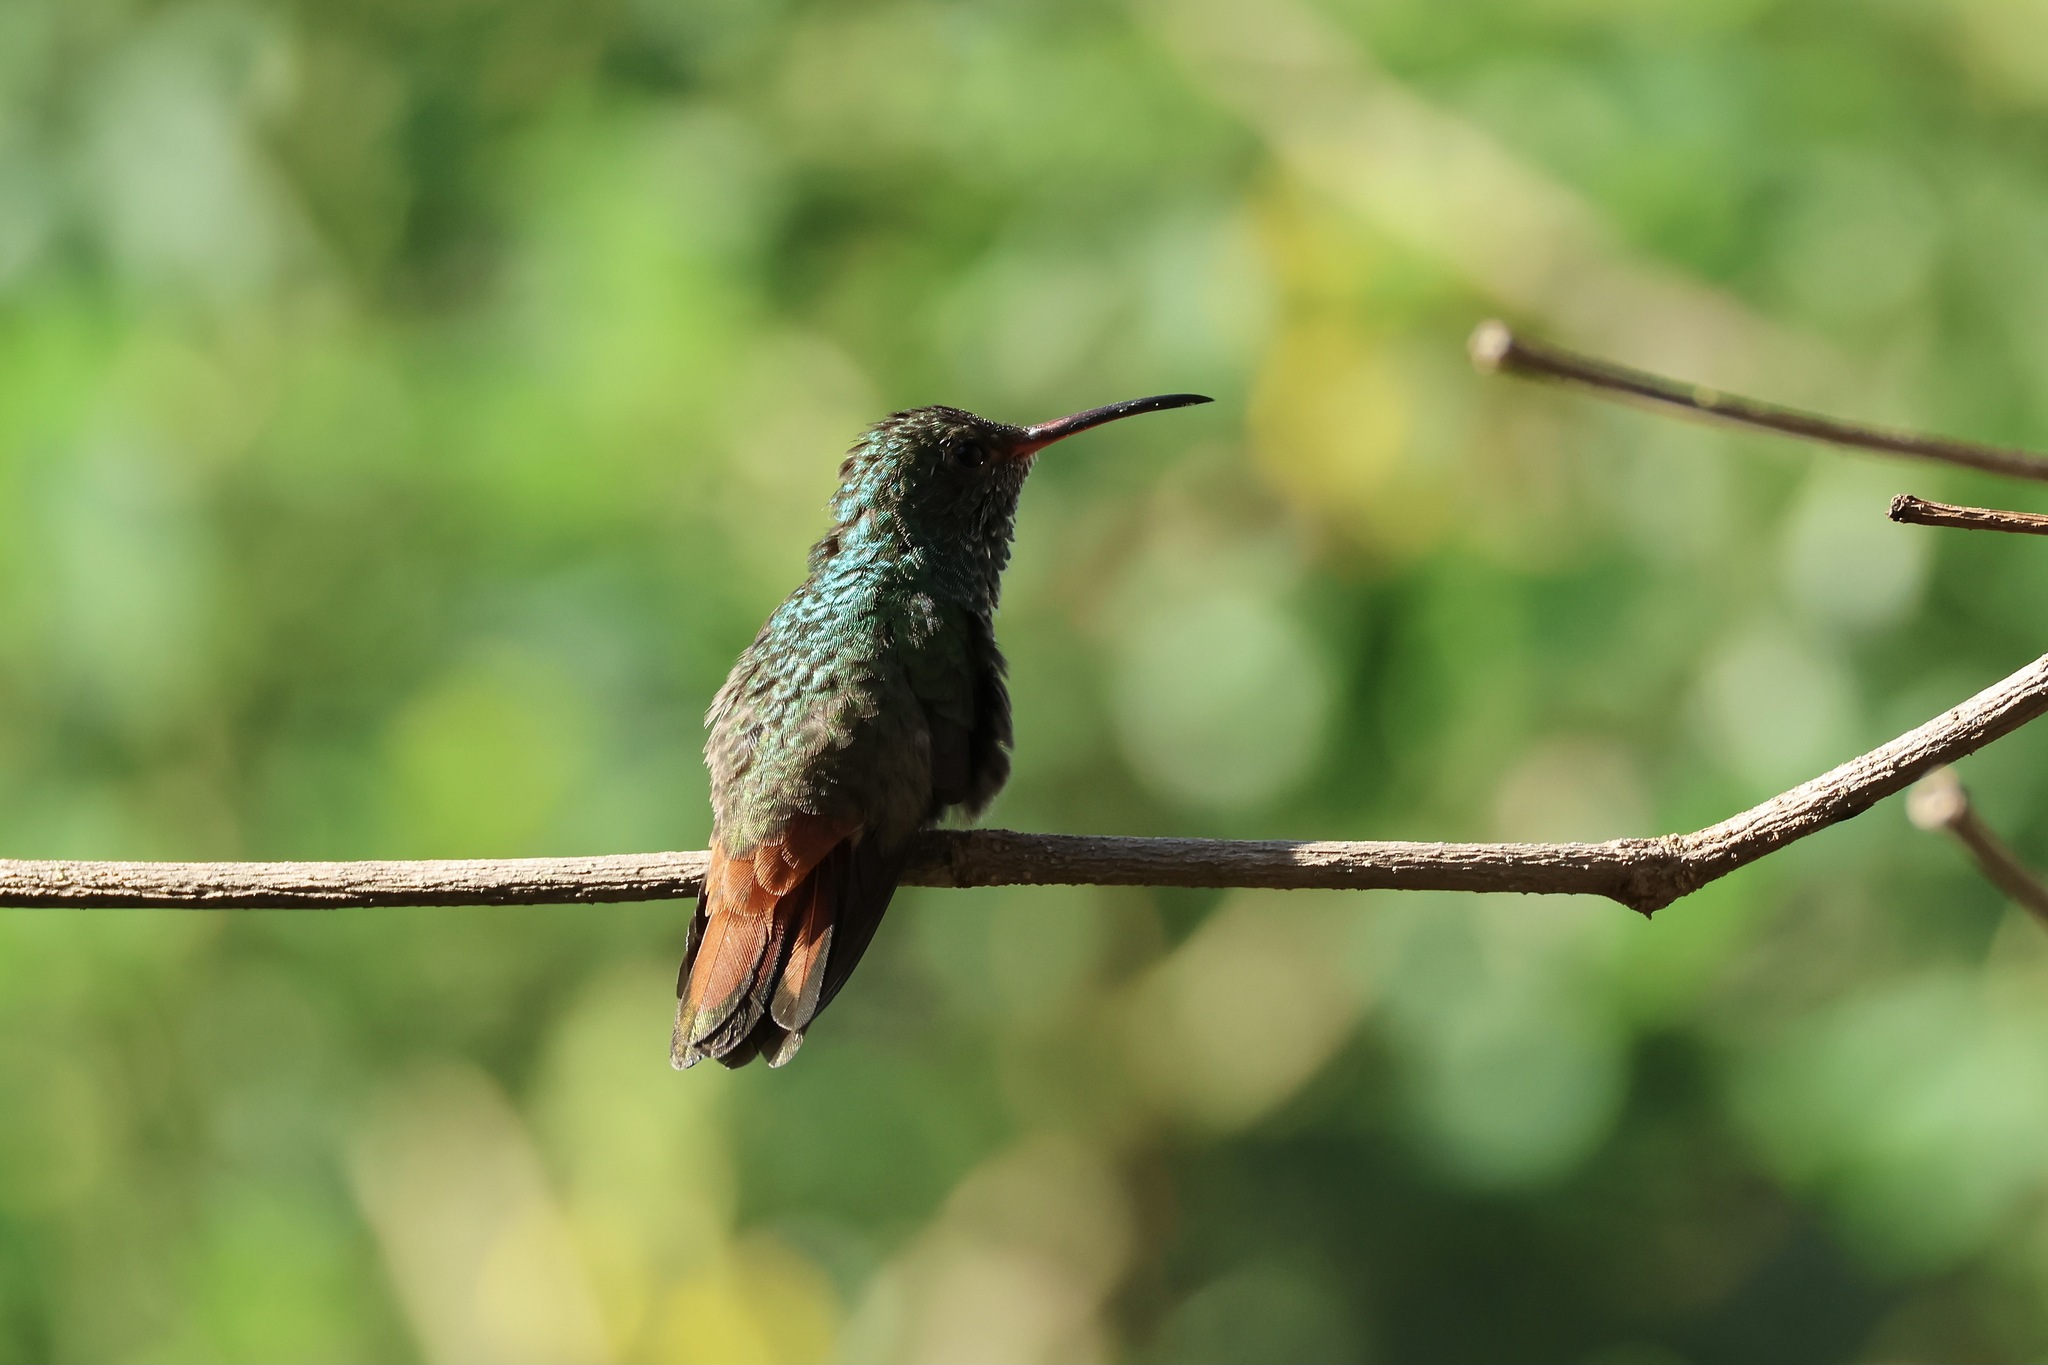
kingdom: Animalia
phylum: Chordata
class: Aves
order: Apodiformes
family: Trochilidae
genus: Amazilia
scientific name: Amazilia tzacatl
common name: Rufous-tailed hummingbird
